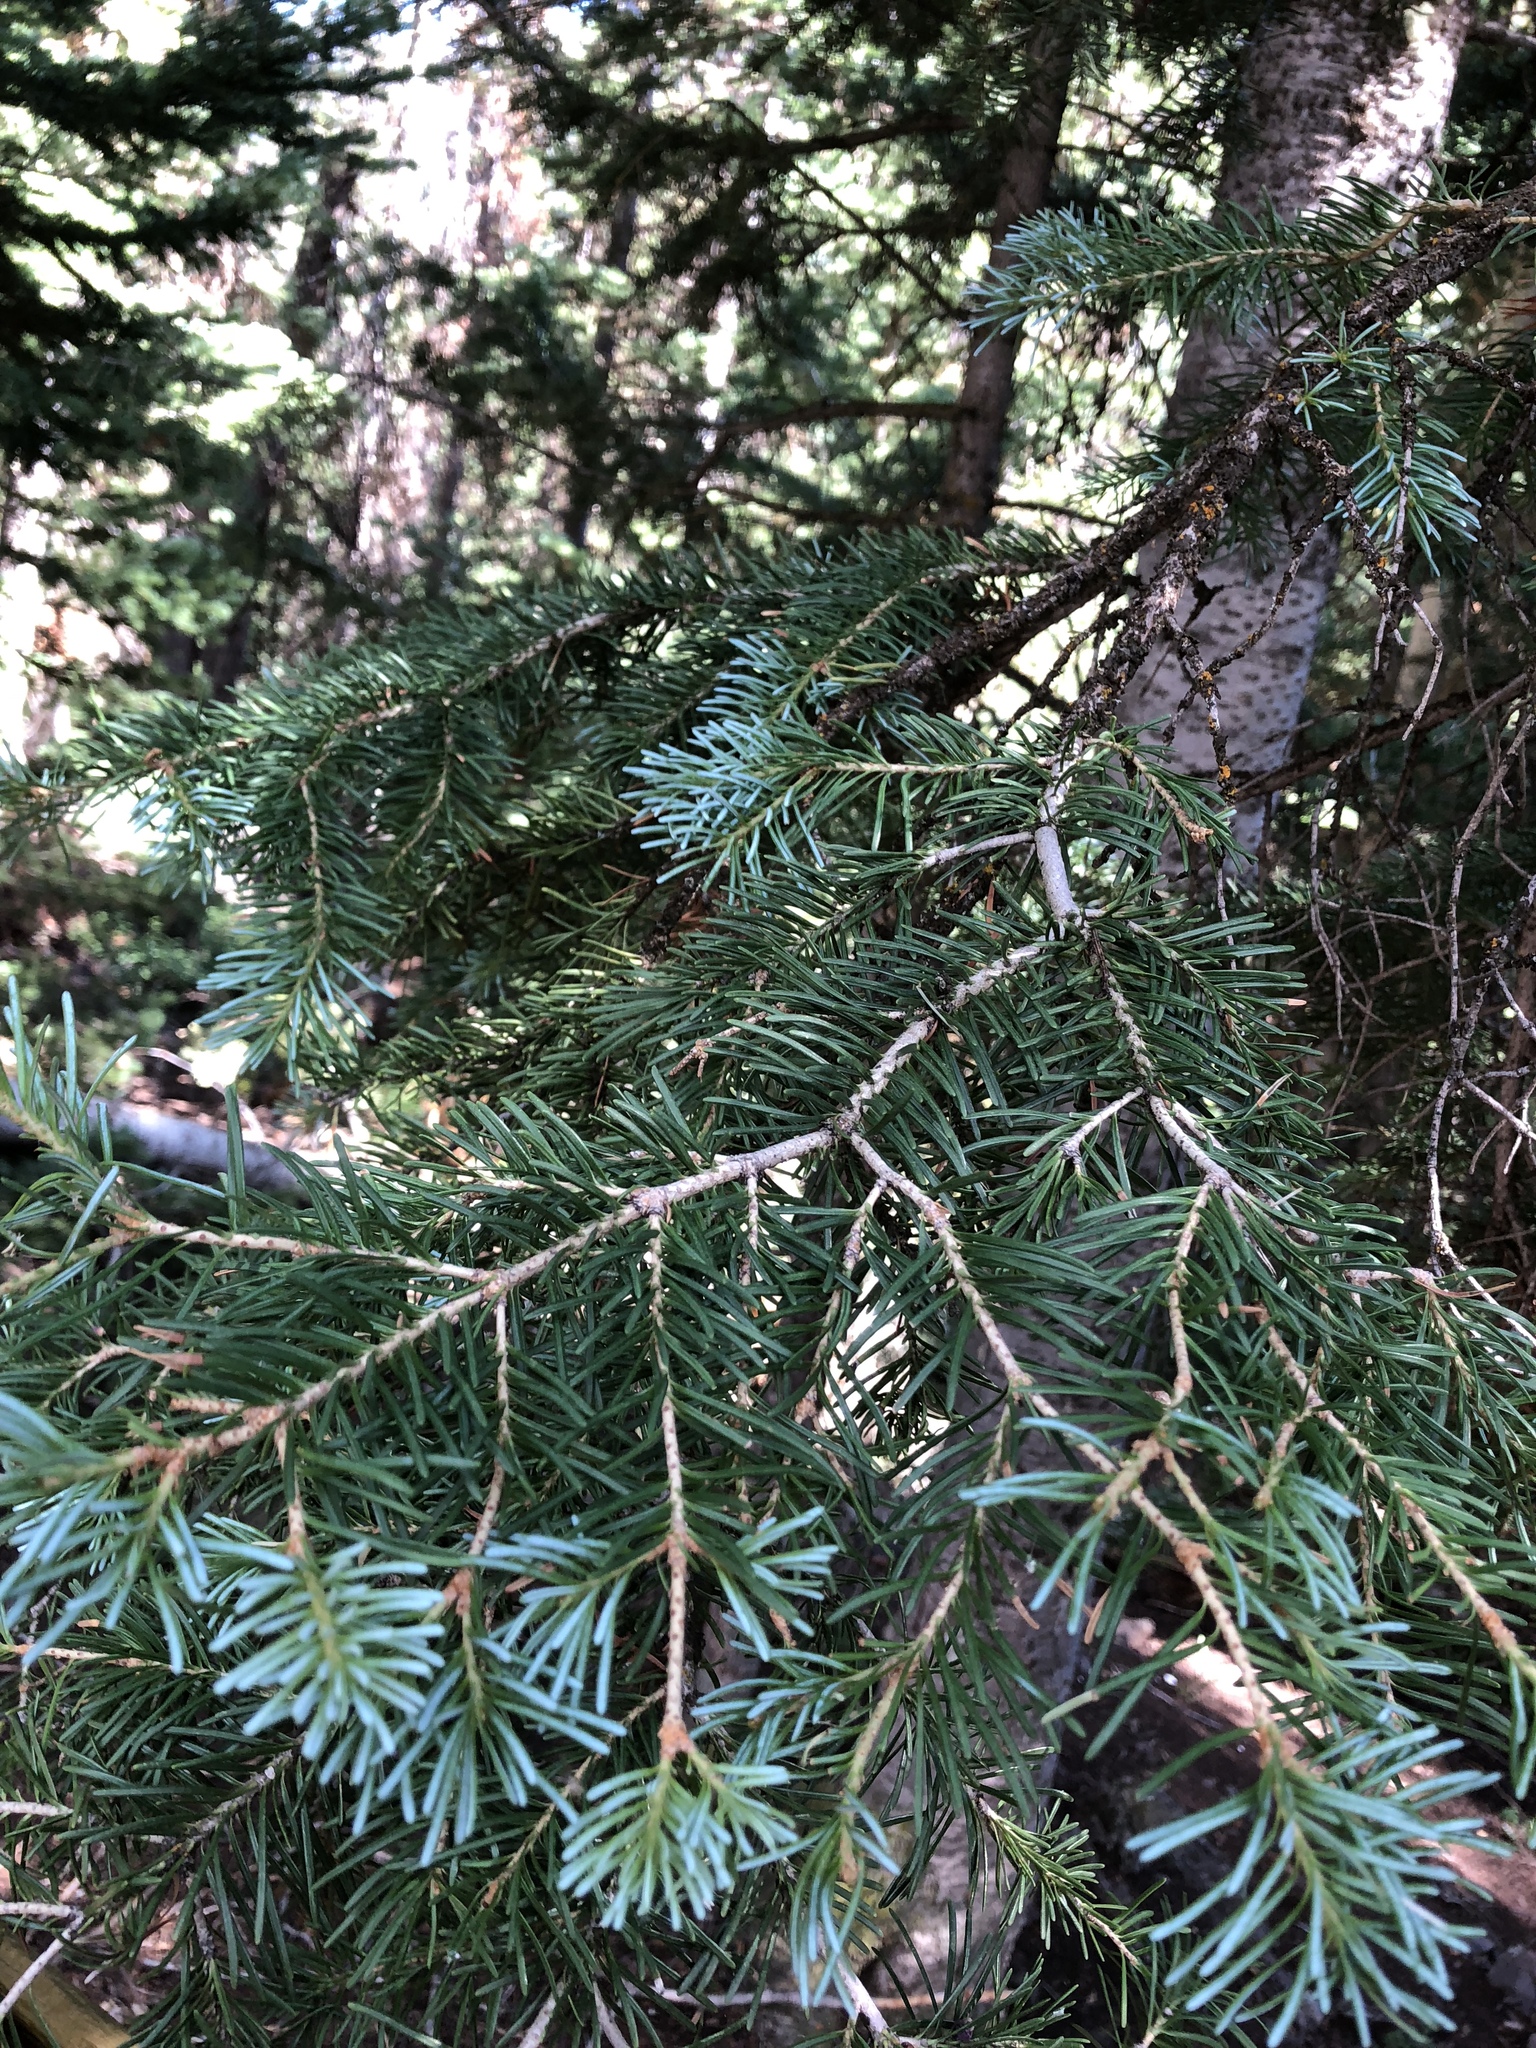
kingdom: Plantae
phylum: Tracheophyta
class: Pinopsida
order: Pinales
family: Pinaceae
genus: Abies
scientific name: Abies lasiocarpa
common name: Subalpine fir
